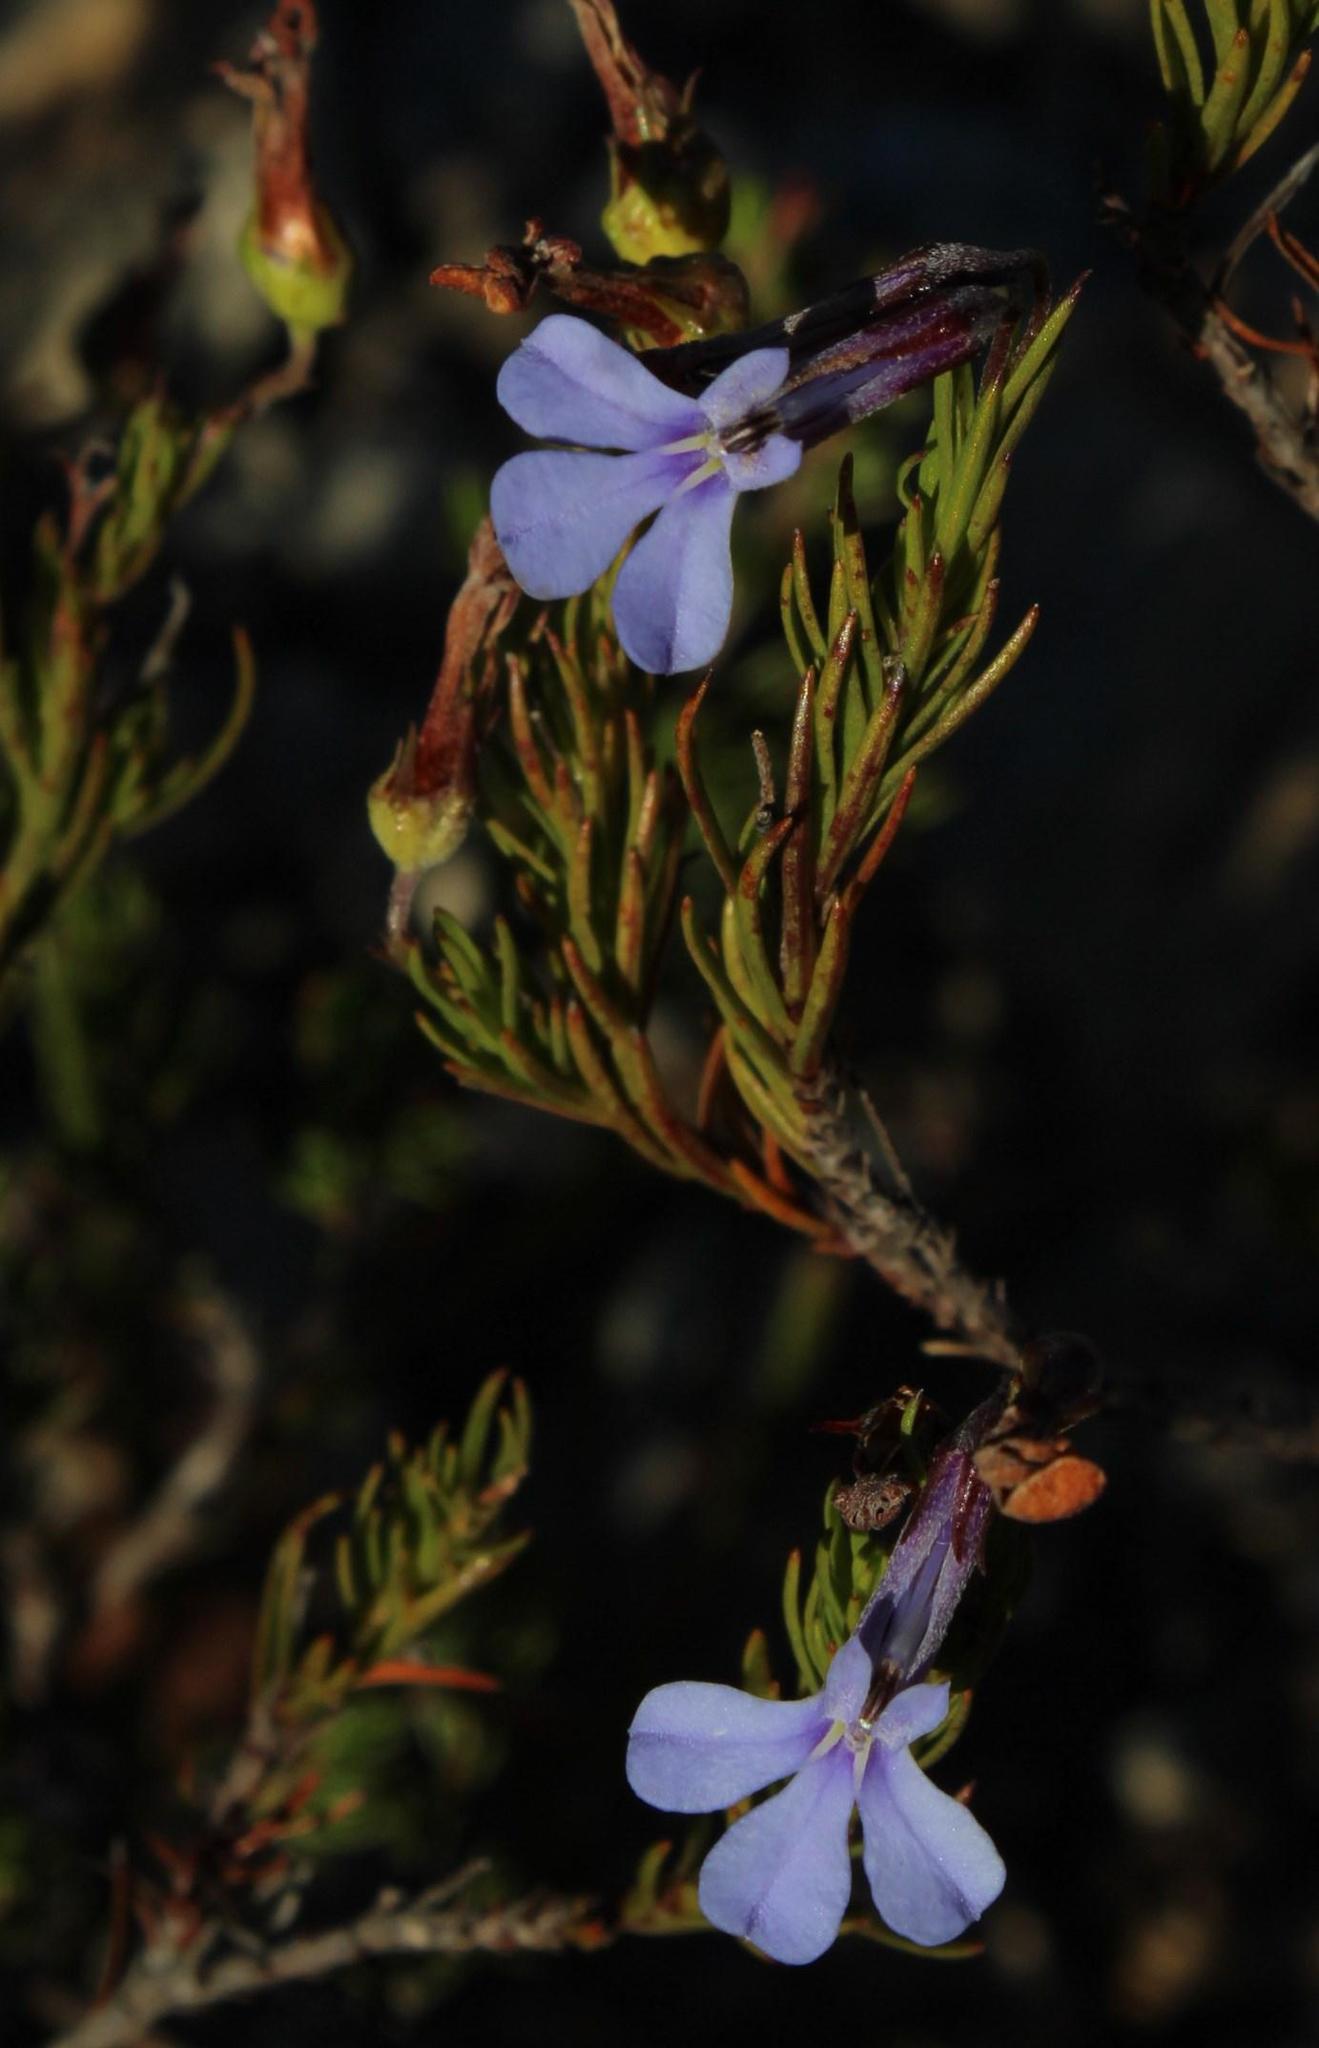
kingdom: Plantae
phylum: Tracheophyta
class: Magnoliopsida
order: Asterales
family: Campanulaceae
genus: Lobelia
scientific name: Lobelia pinifolia
